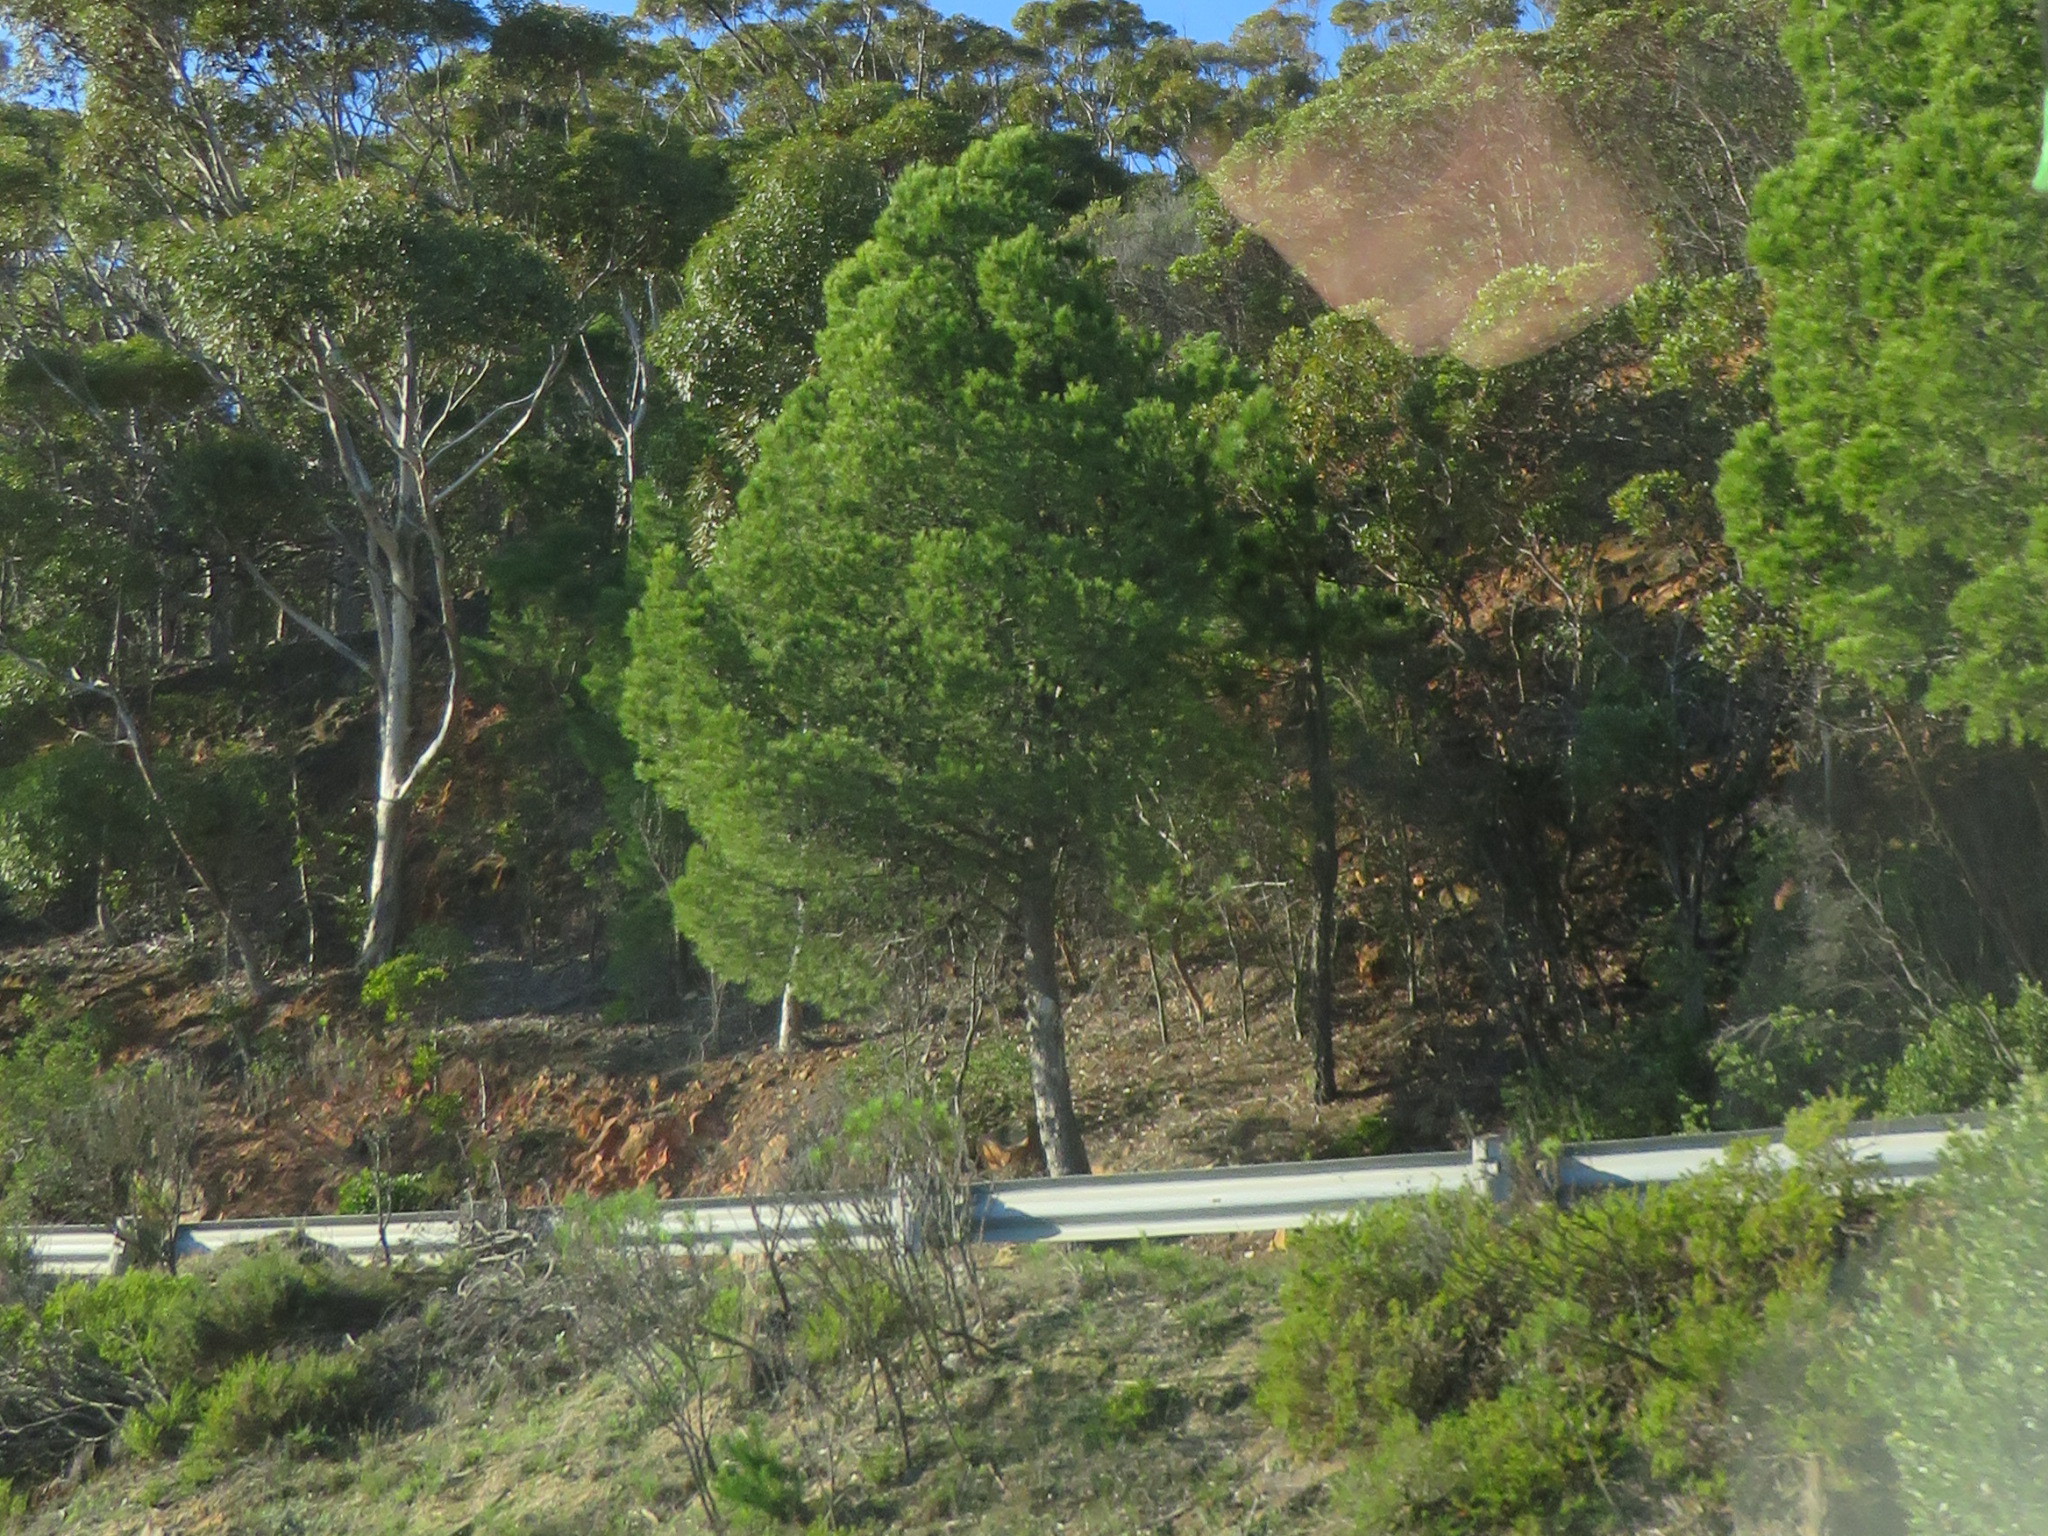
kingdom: Plantae
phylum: Tracheophyta
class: Pinopsida
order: Pinales
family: Pinaceae
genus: Pinus
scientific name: Pinus halepensis
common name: Aleppo pine
